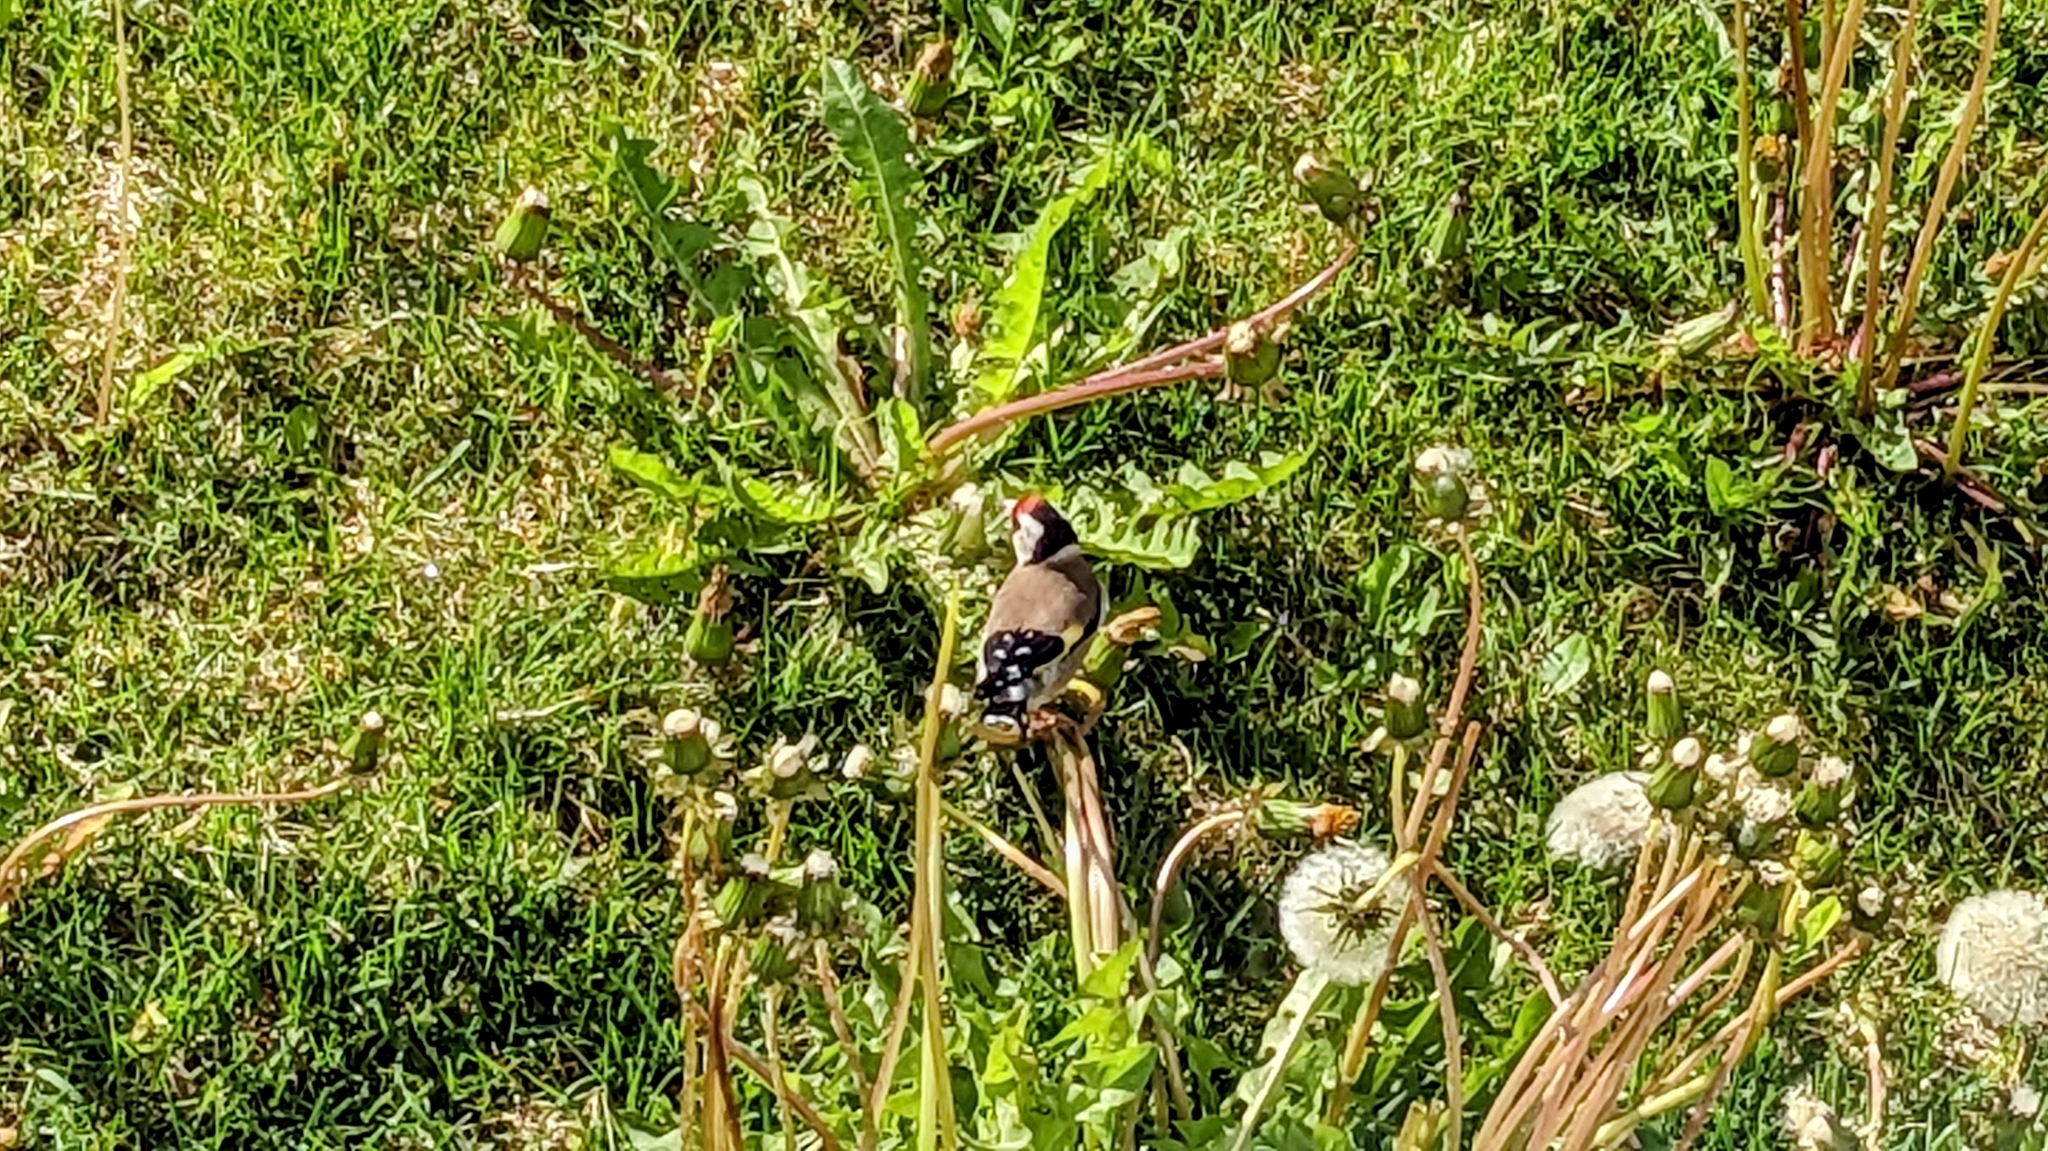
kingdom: Animalia
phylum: Chordata
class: Aves
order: Passeriformes
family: Fringillidae
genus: Carduelis
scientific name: Carduelis carduelis
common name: European goldfinch
